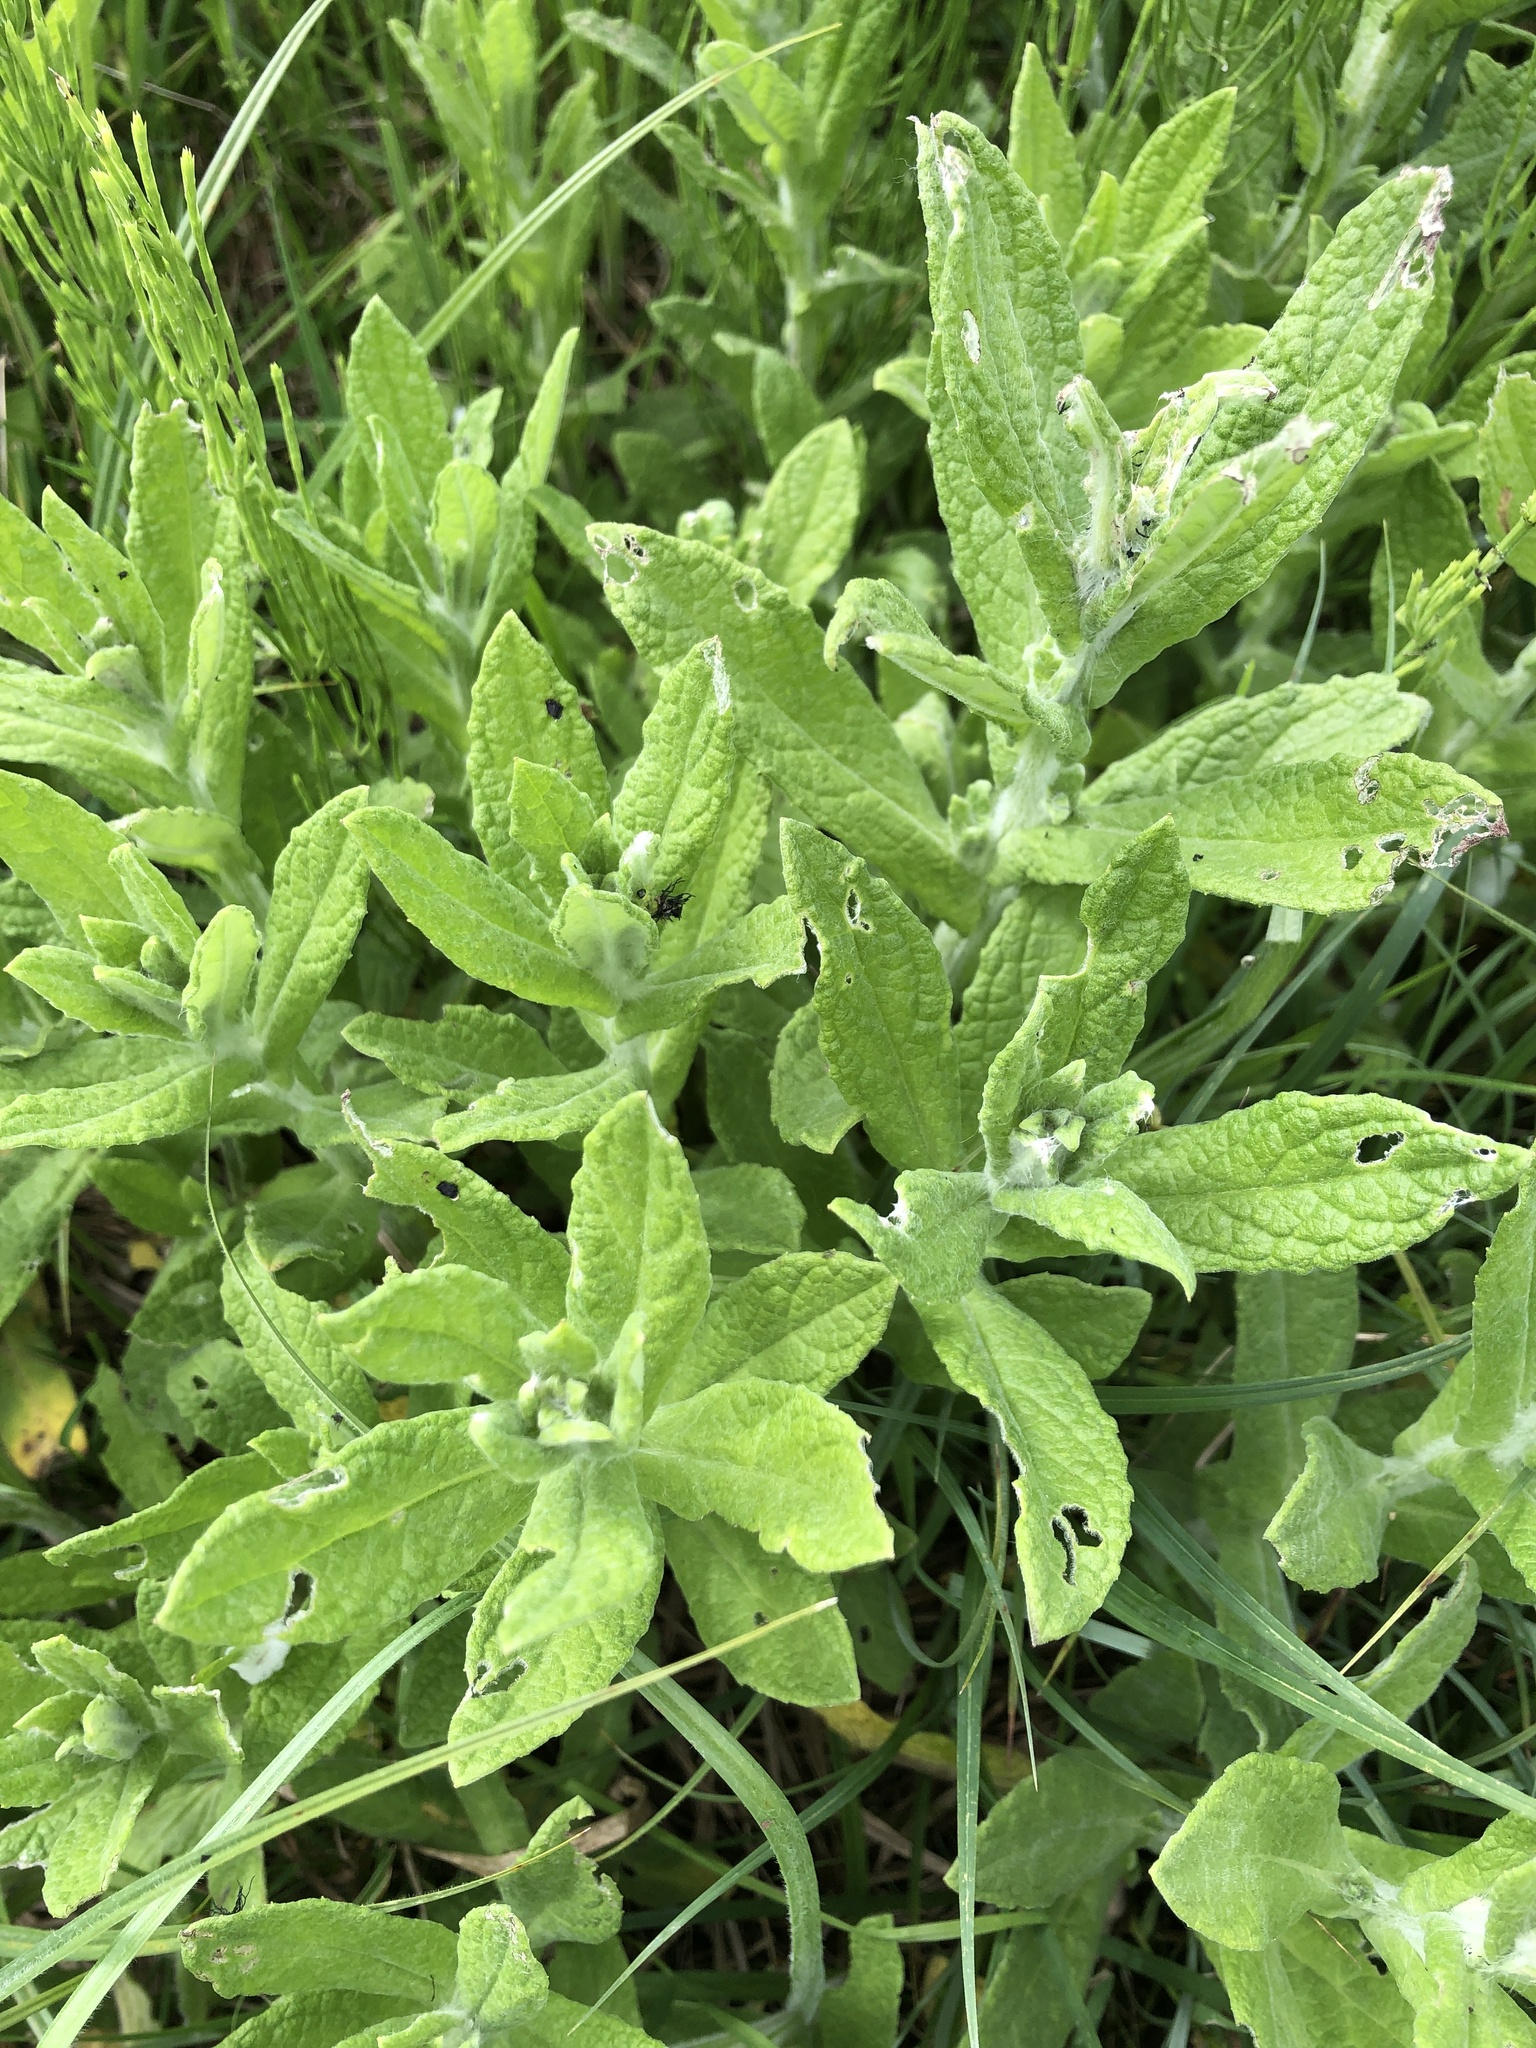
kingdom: Plantae
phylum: Tracheophyta
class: Magnoliopsida
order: Asterales
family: Asteraceae
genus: Pulicaria
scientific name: Pulicaria dysenterica
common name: Common fleabane
